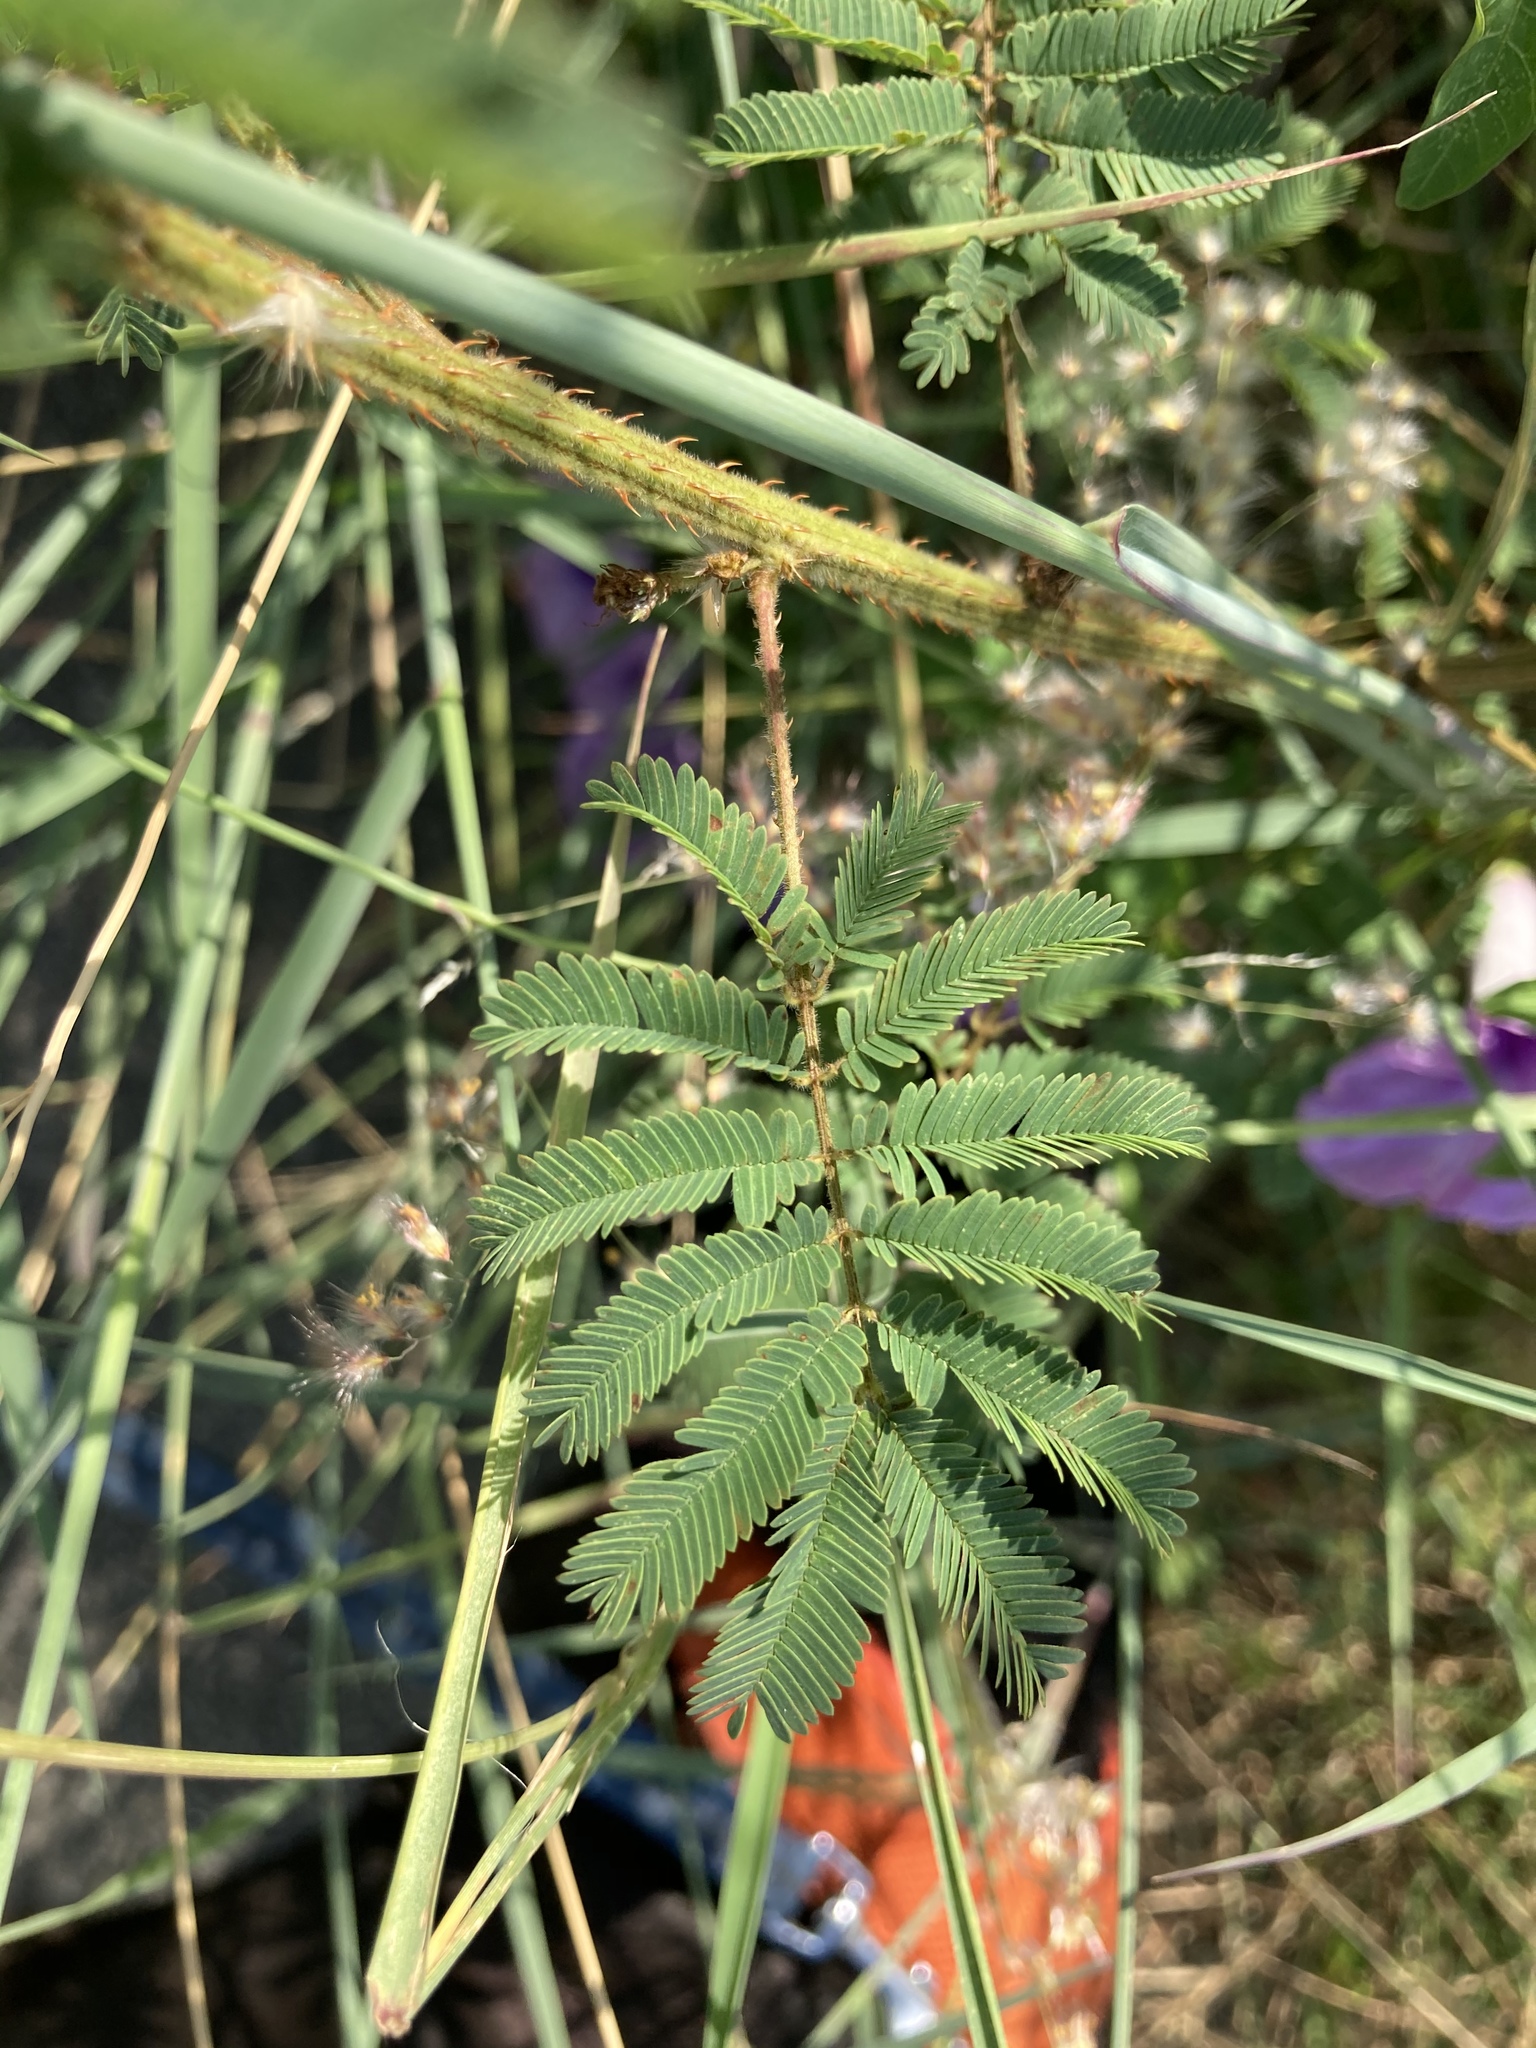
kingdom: Plantae
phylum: Tracheophyta
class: Magnoliopsida
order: Fabales
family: Fabaceae
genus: Mimosa
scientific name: Mimosa diplotricha
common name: Giant sensitive-plant
